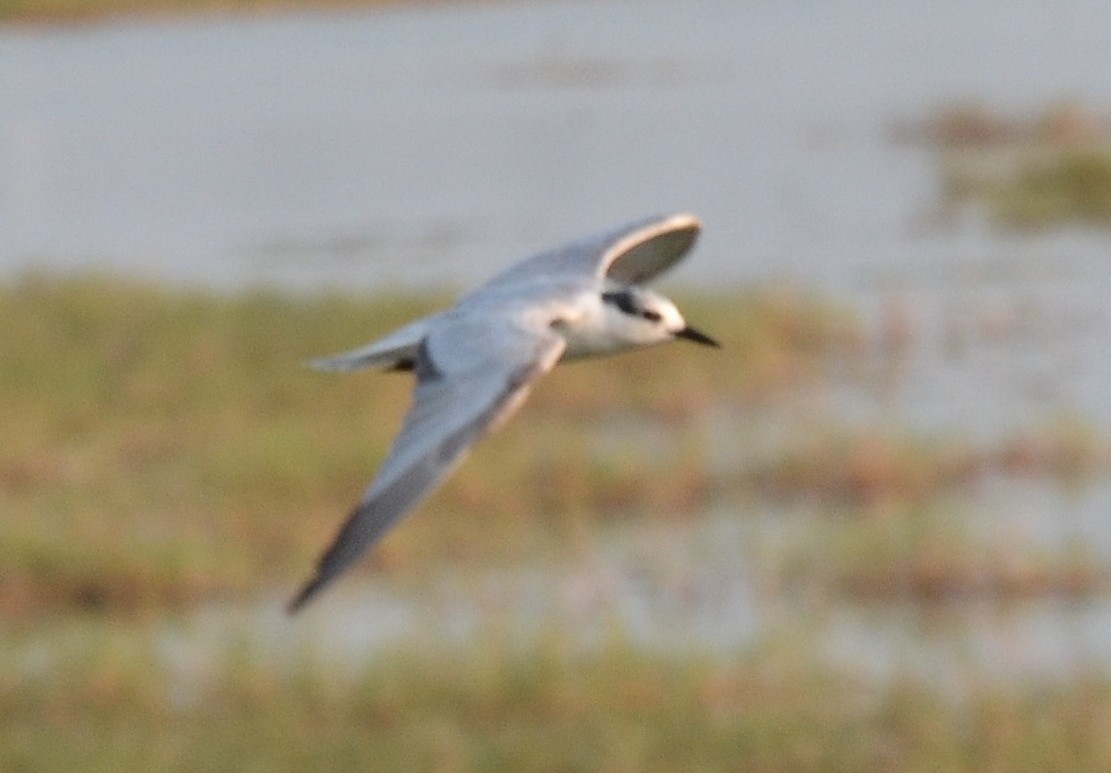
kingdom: Animalia
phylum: Chordata
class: Aves
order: Charadriiformes
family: Laridae
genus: Chlidonias
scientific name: Chlidonias hybrida
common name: Whiskered tern
